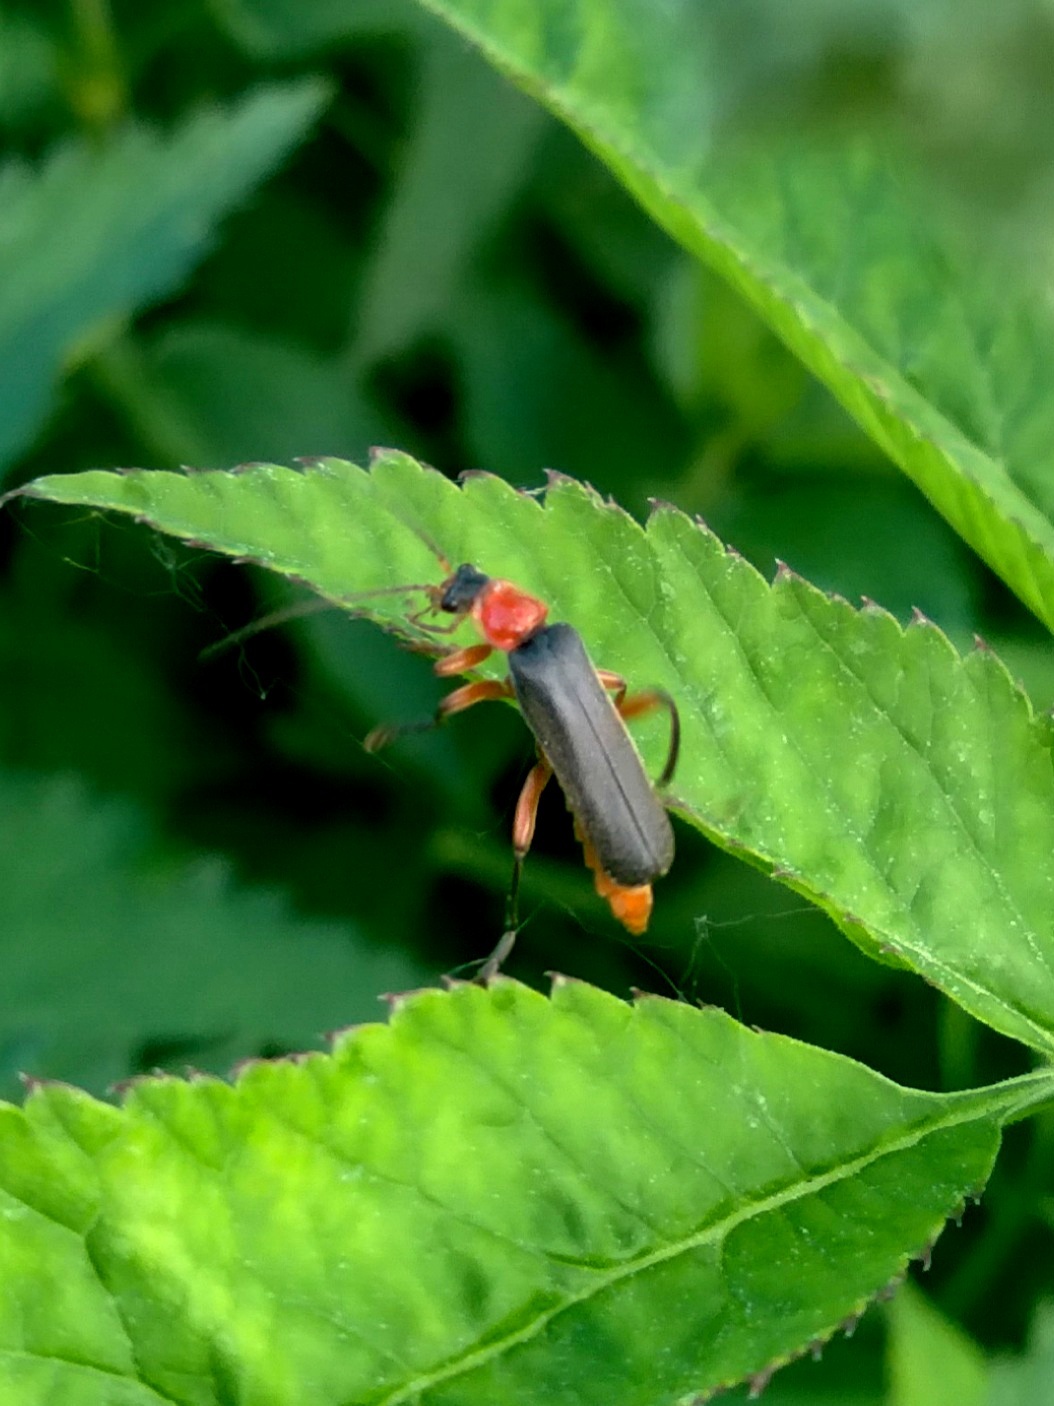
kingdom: Animalia
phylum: Arthropoda
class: Insecta
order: Coleoptera
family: Cantharidae
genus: Cantharis
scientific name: Cantharis pellucida
